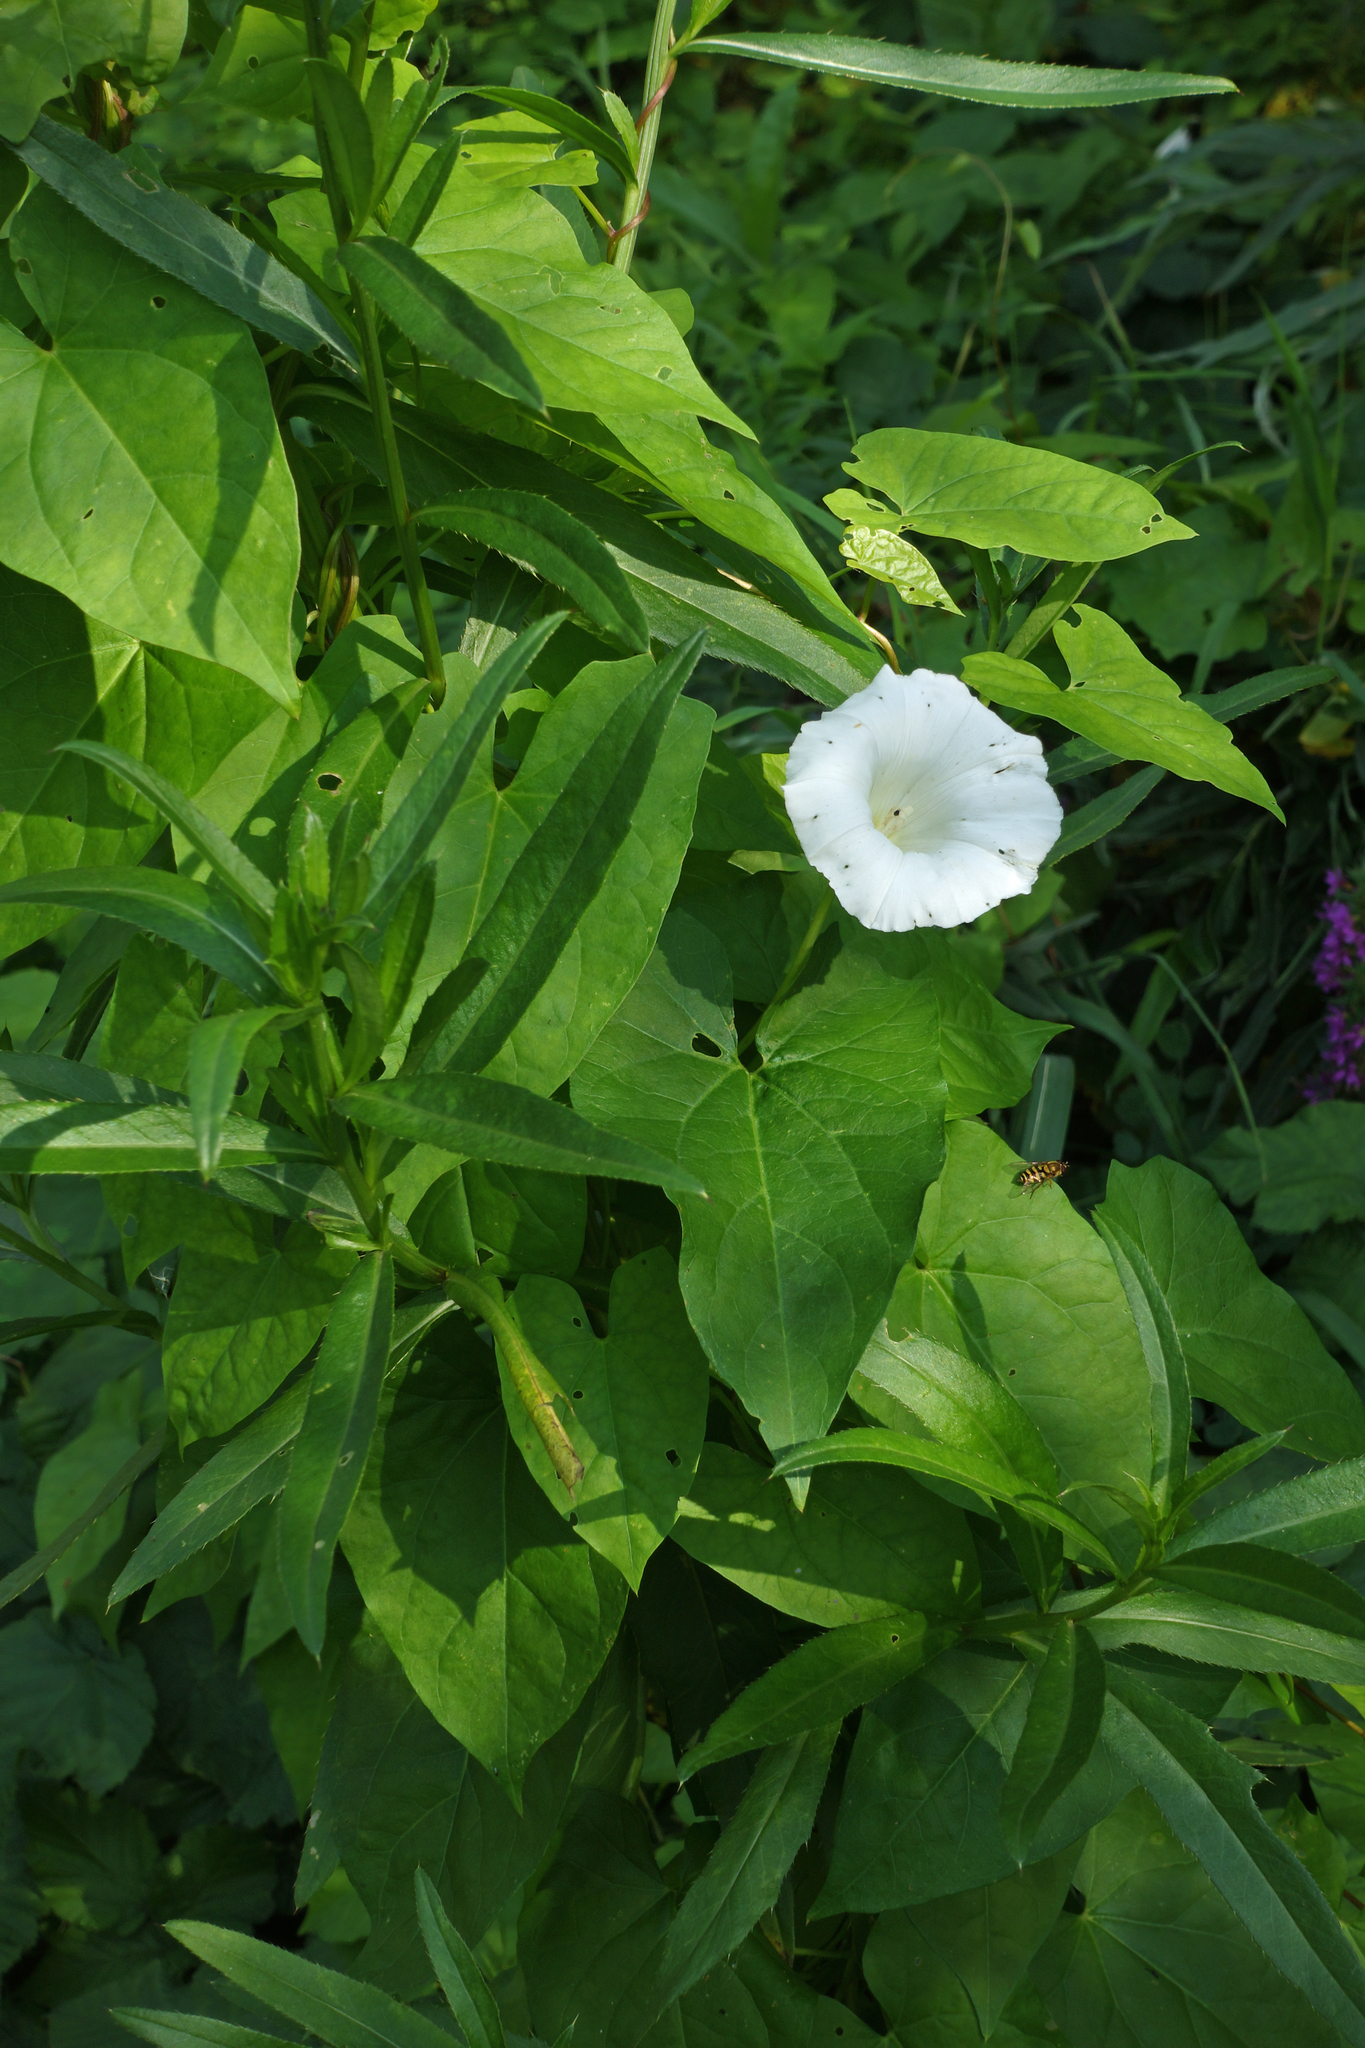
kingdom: Plantae
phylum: Tracheophyta
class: Magnoliopsida
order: Solanales
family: Convolvulaceae
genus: Calystegia
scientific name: Calystegia sepium
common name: Hedge bindweed
